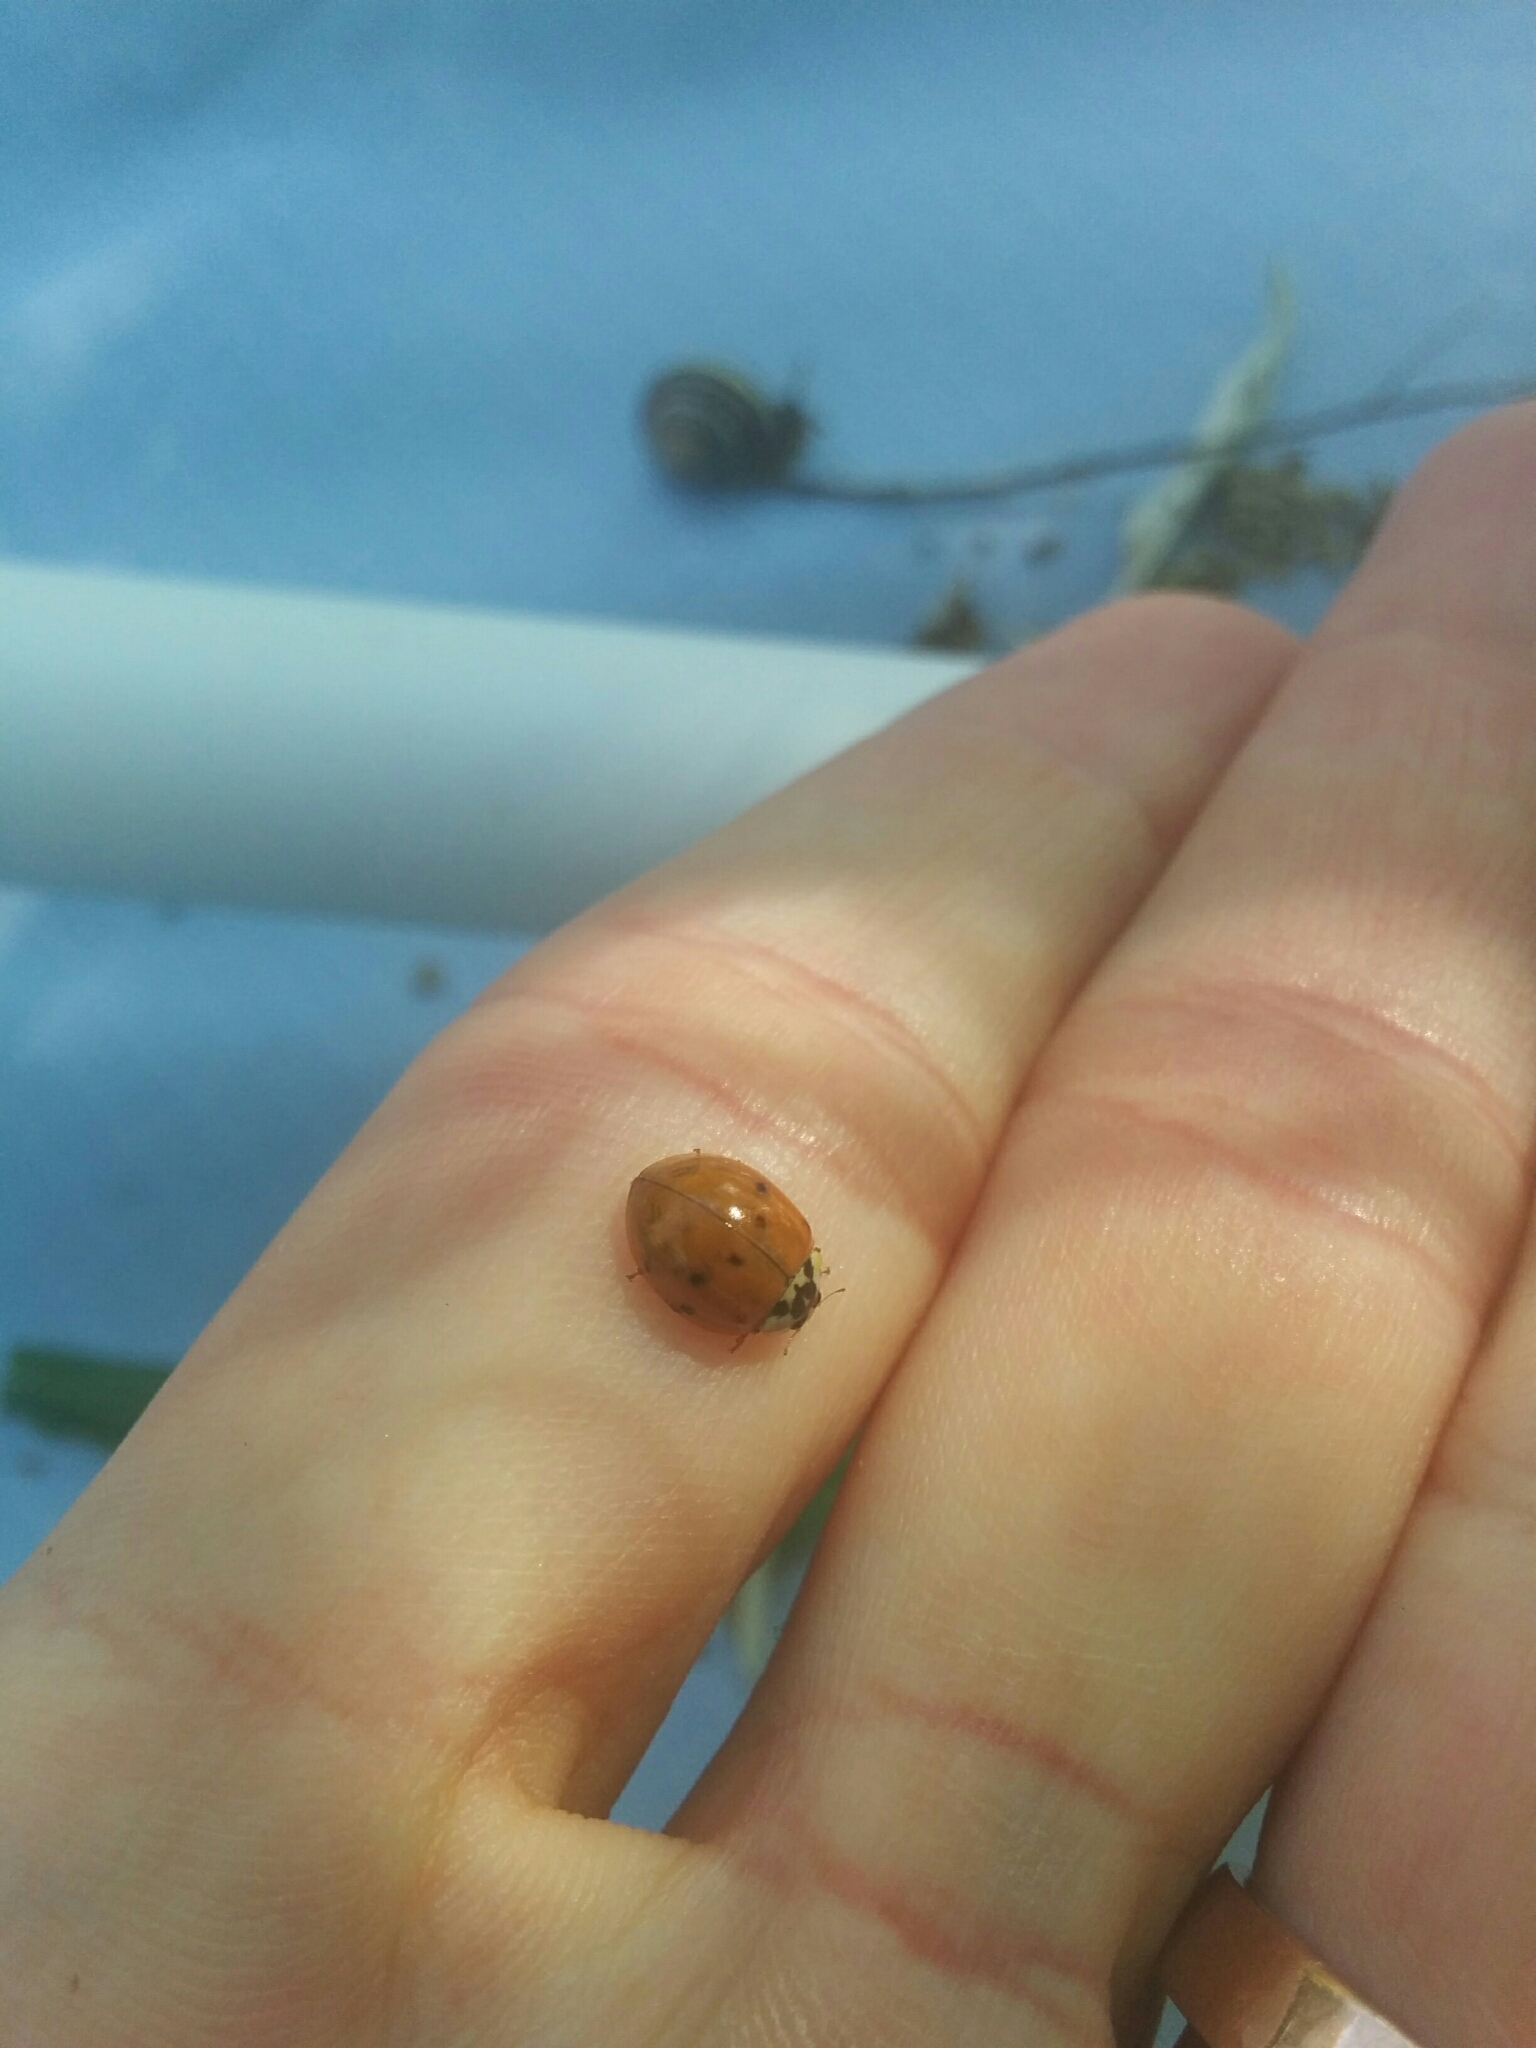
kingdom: Animalia
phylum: Arthropoda
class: Insecta
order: Coleoptera
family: Coccinellidae
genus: Harmonia
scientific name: Harmonia axyridis
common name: Harlequin ladybird
